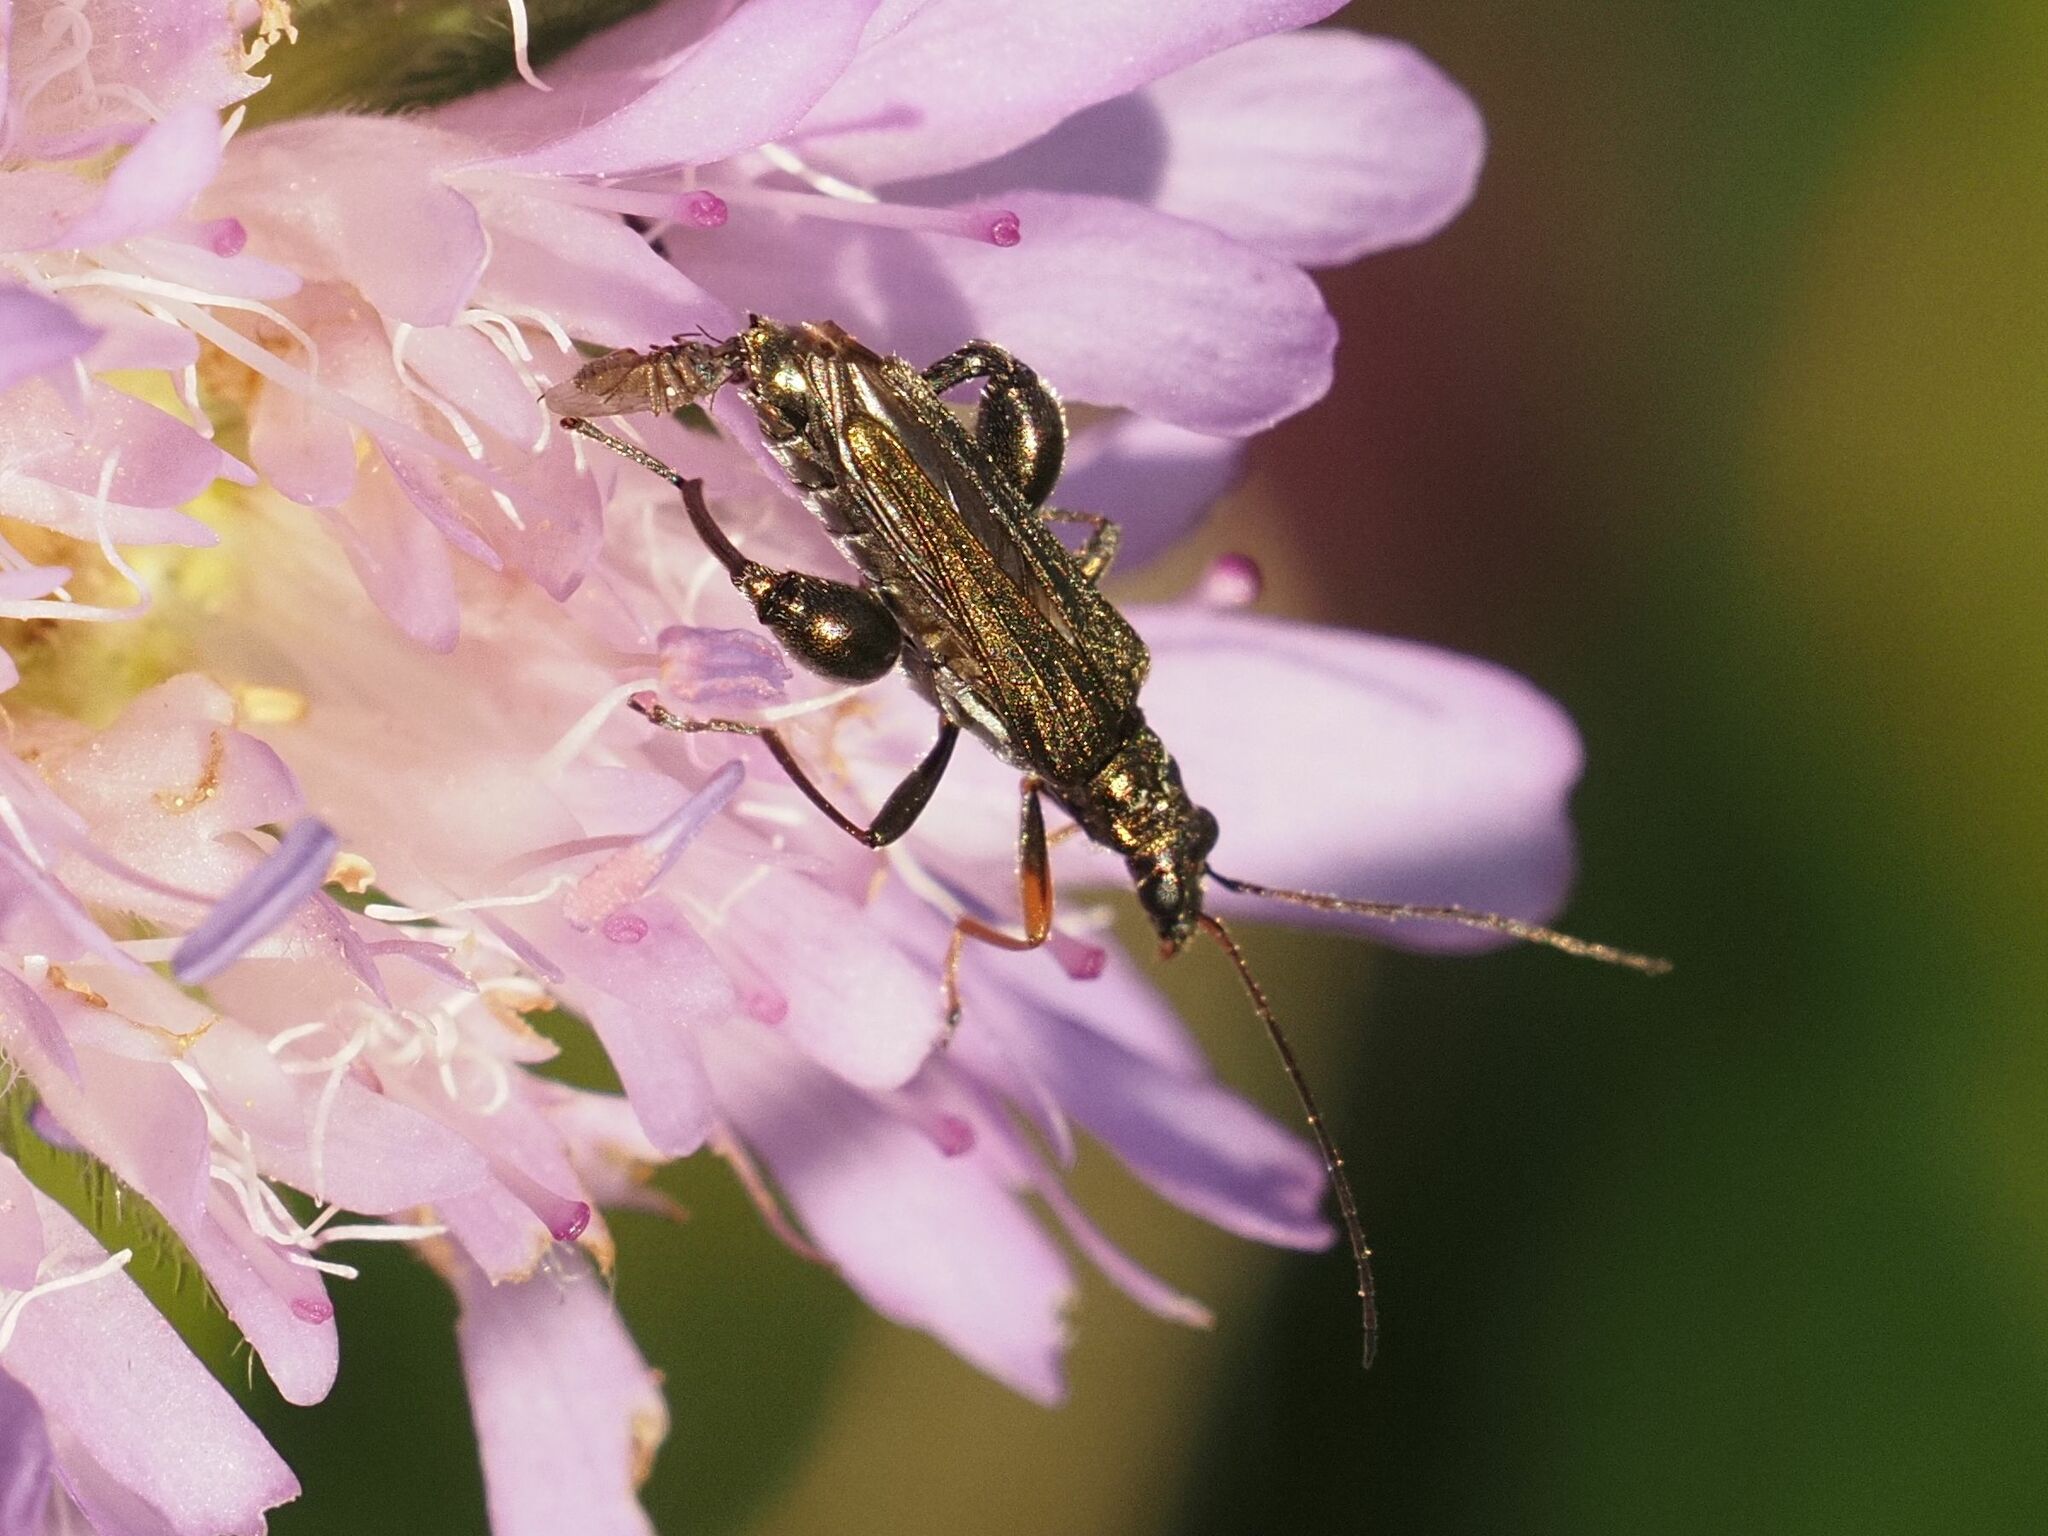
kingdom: Animalia
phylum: Arthropoda
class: Insecta
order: Coleoptera
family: Oedemeridae
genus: Oedemera
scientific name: Oedemera flavipes
